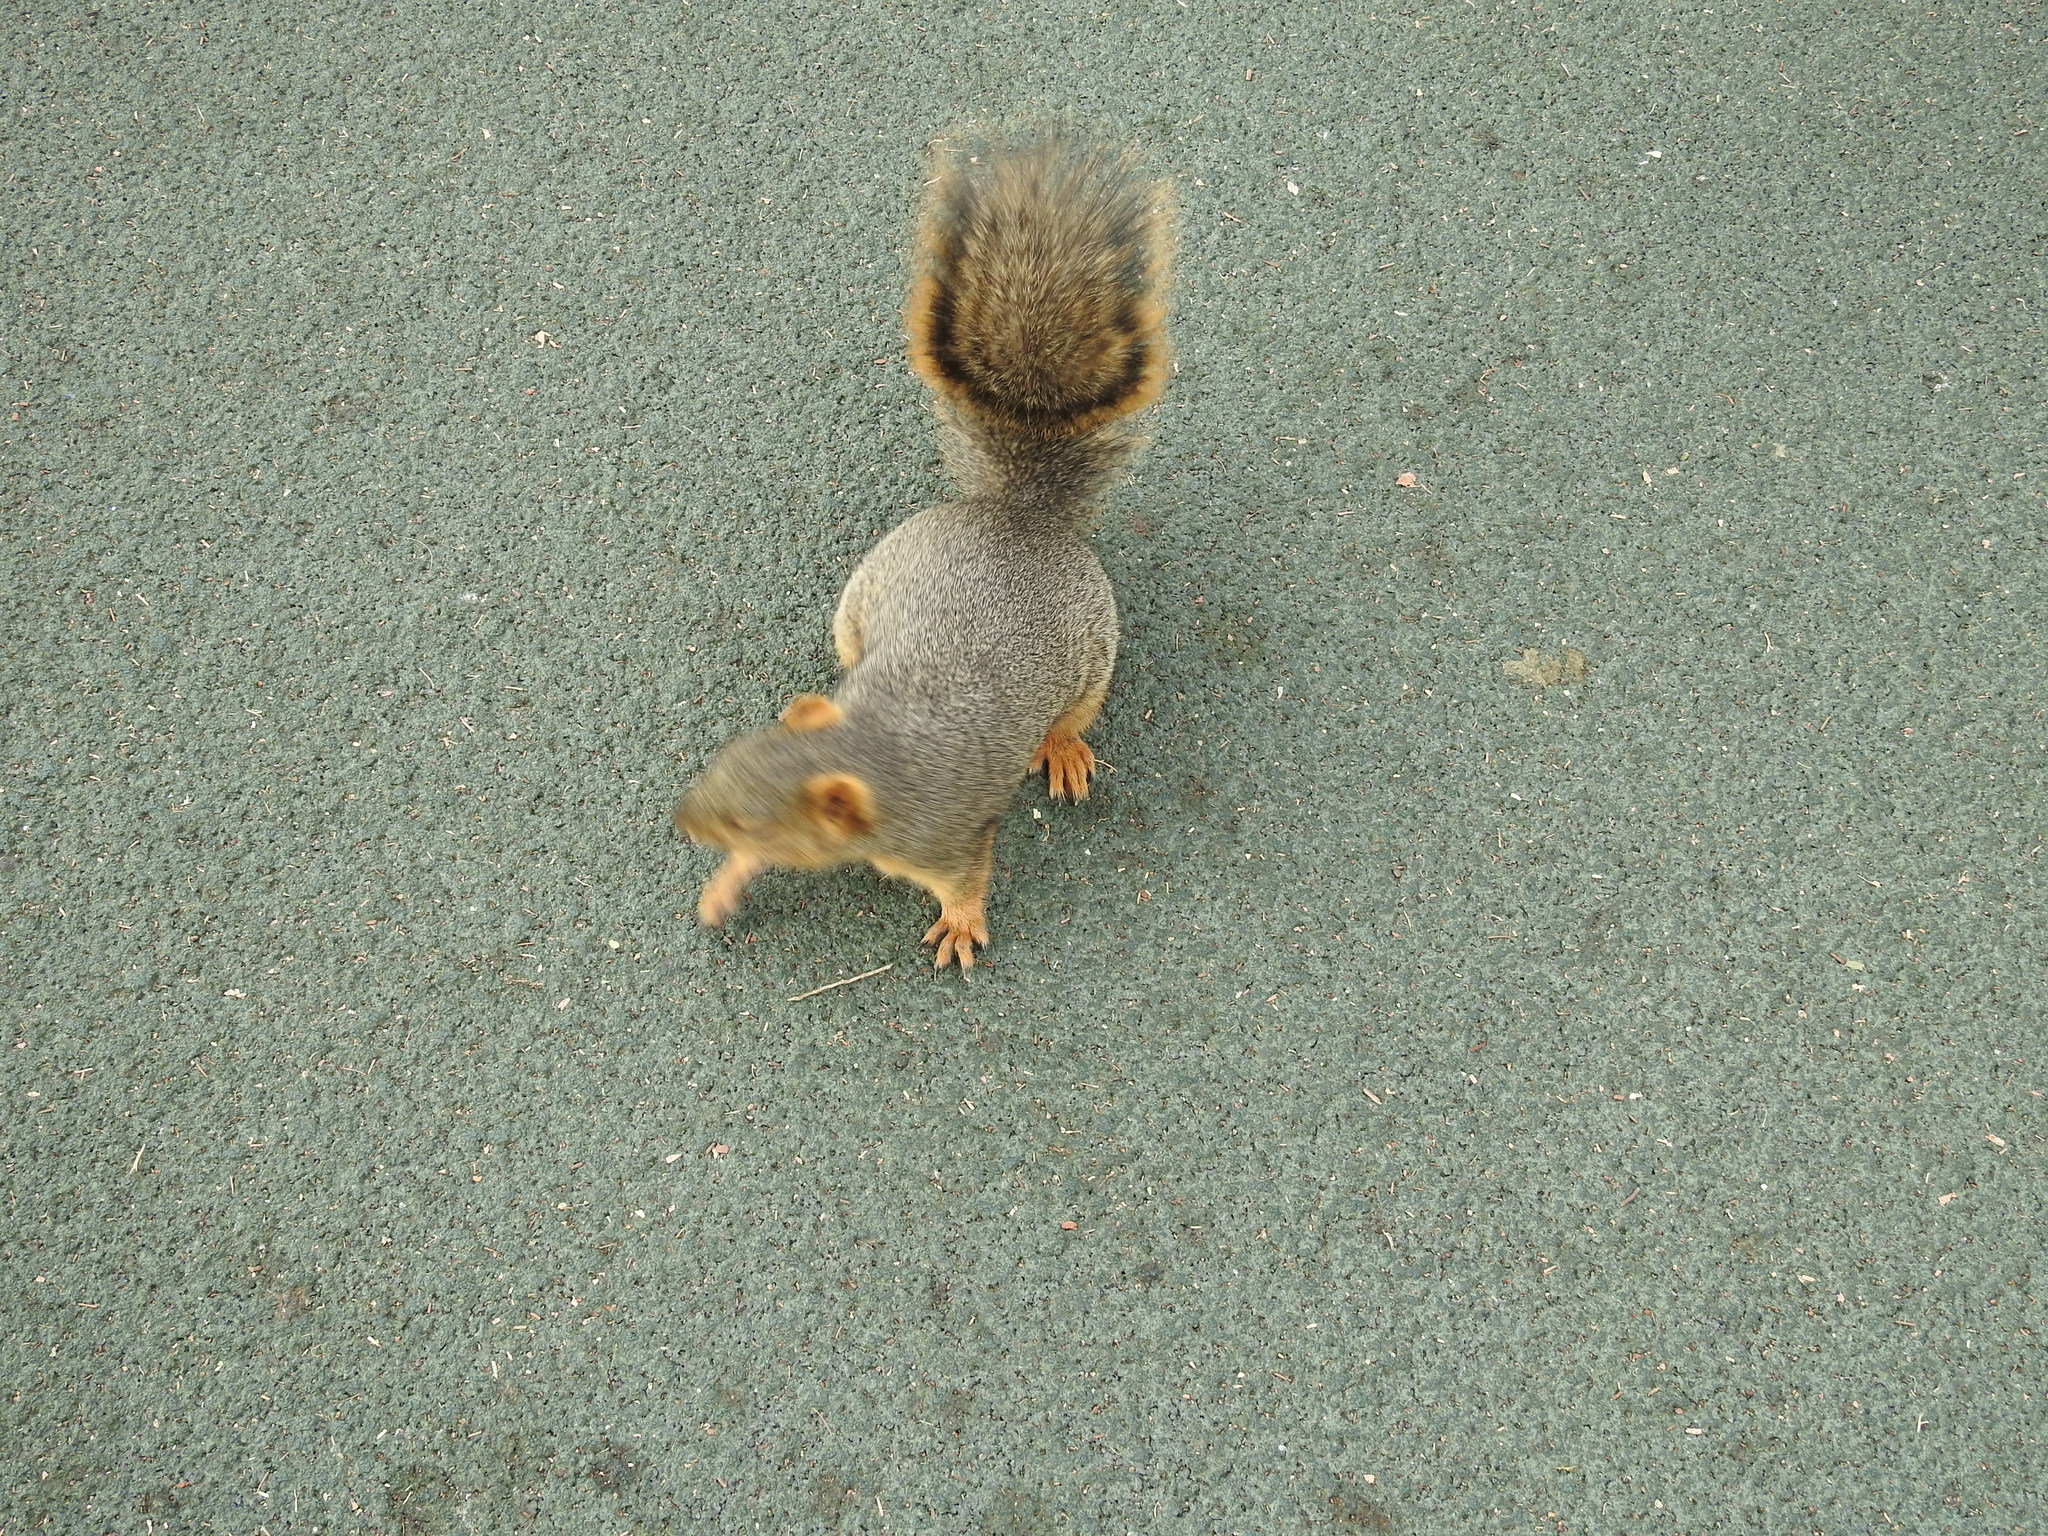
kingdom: Animalia
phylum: Chordata
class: Mammalia
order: Rodentia
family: Sciuridae
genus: Sciurus
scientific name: Sciurus niger
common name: Fox squirrel
